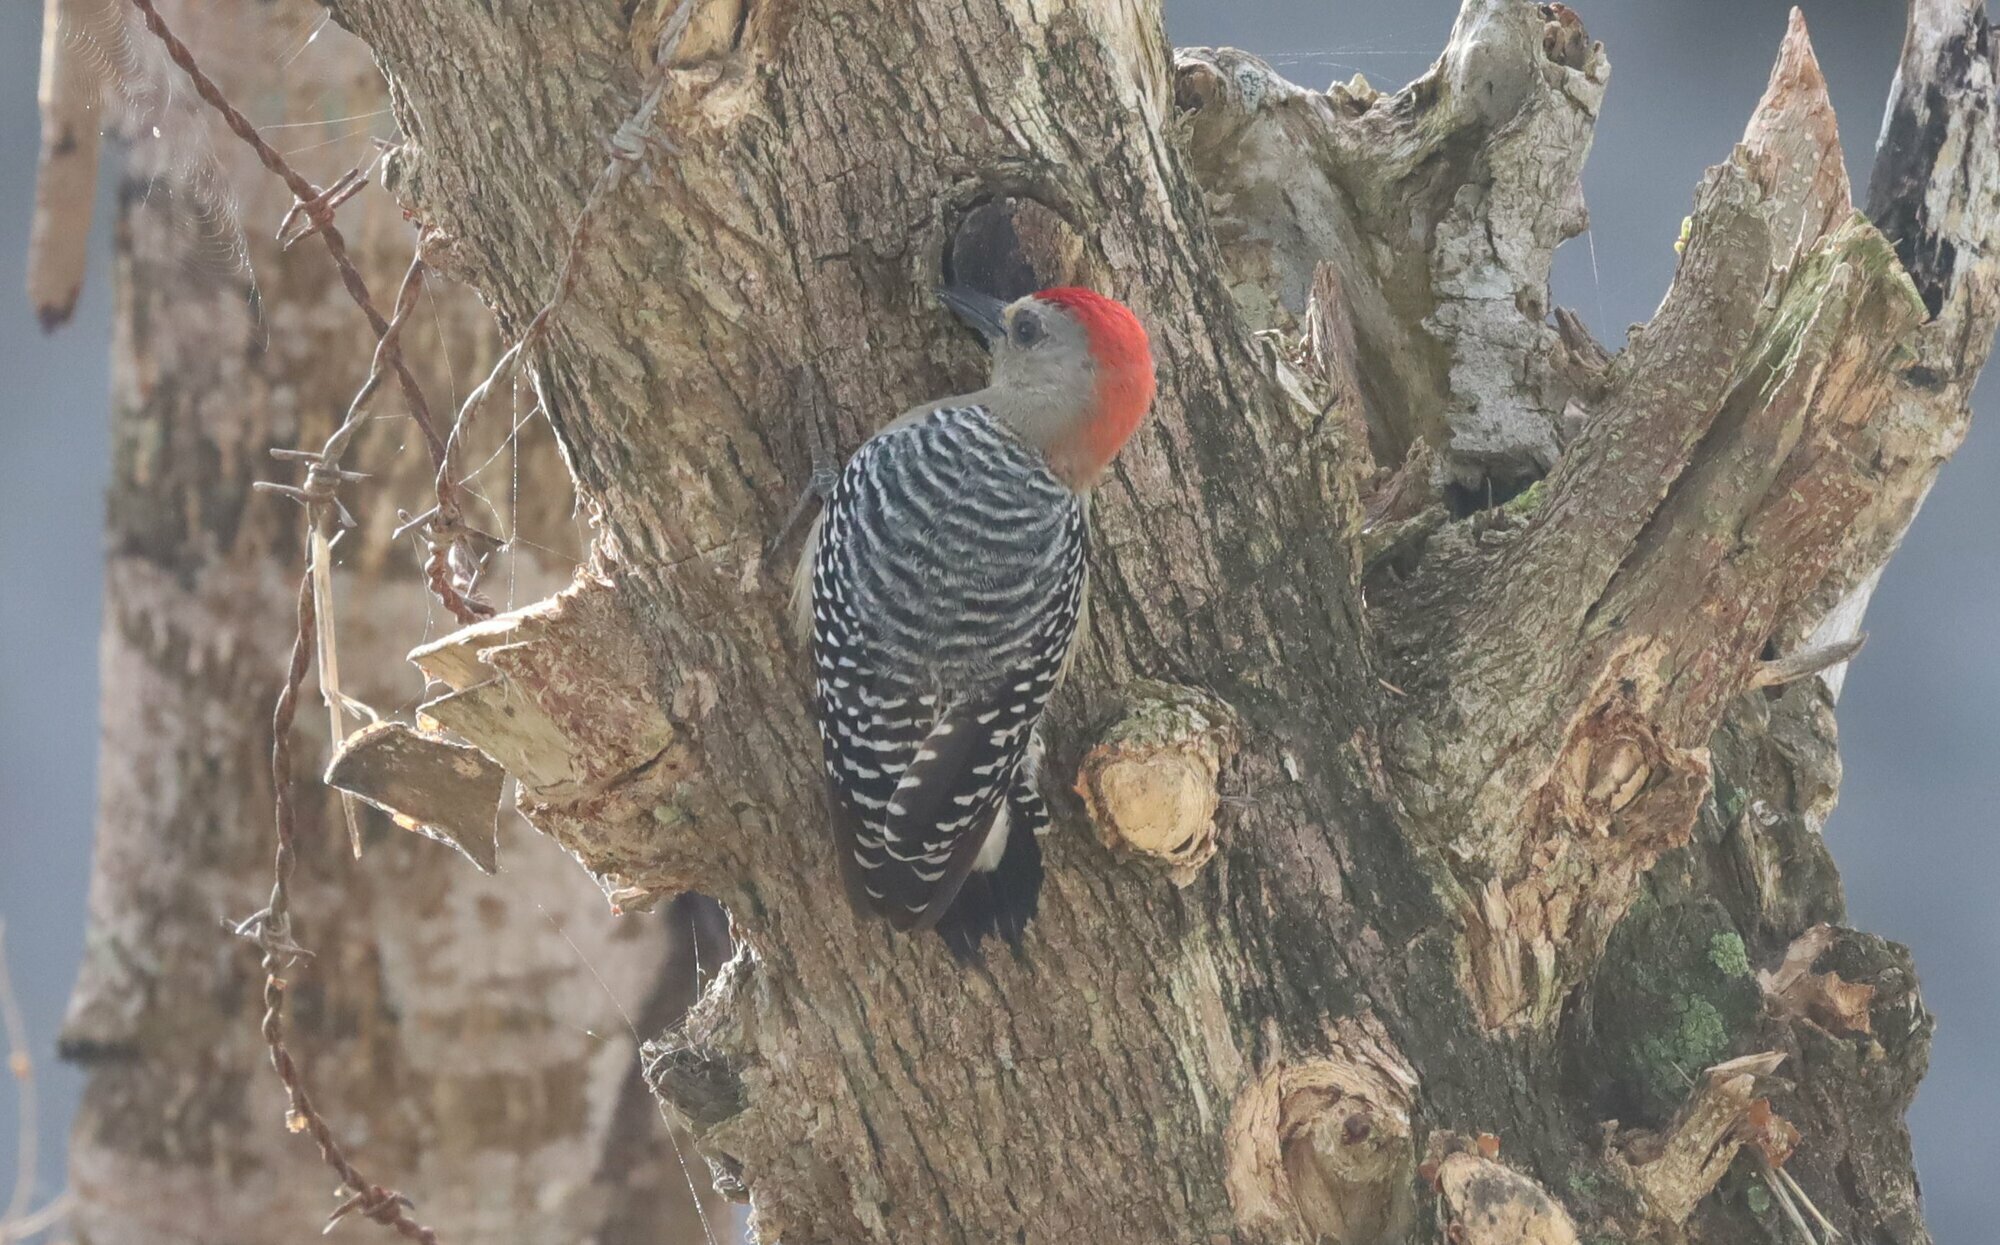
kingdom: Animalia
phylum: Chordata
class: Aves
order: Piciformes
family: Picidae
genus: Melanerpes
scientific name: Melanerpes rubricapillus
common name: Red-crowned woodpecker
